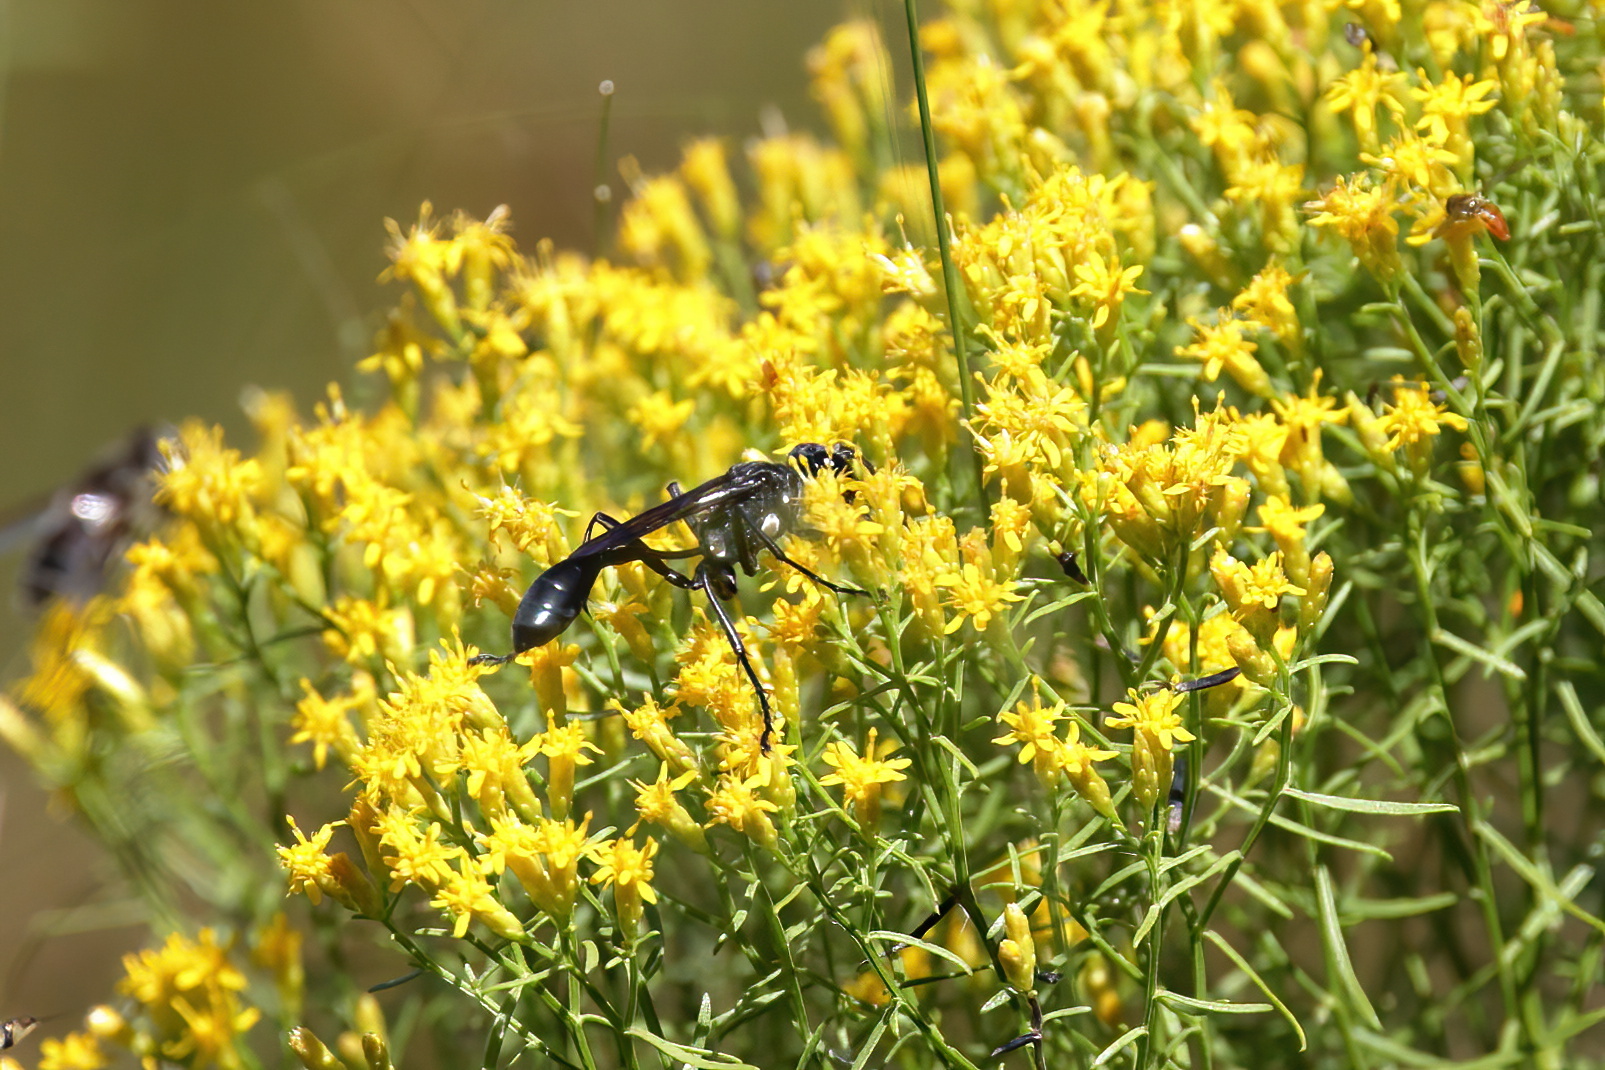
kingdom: Animalia
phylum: Arthropoda
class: Insecta
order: Hymenoptera
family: Sphecidae
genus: Eremnophila
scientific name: Eremnophila aureonotata
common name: Gold-marked thread-waisted wasp
